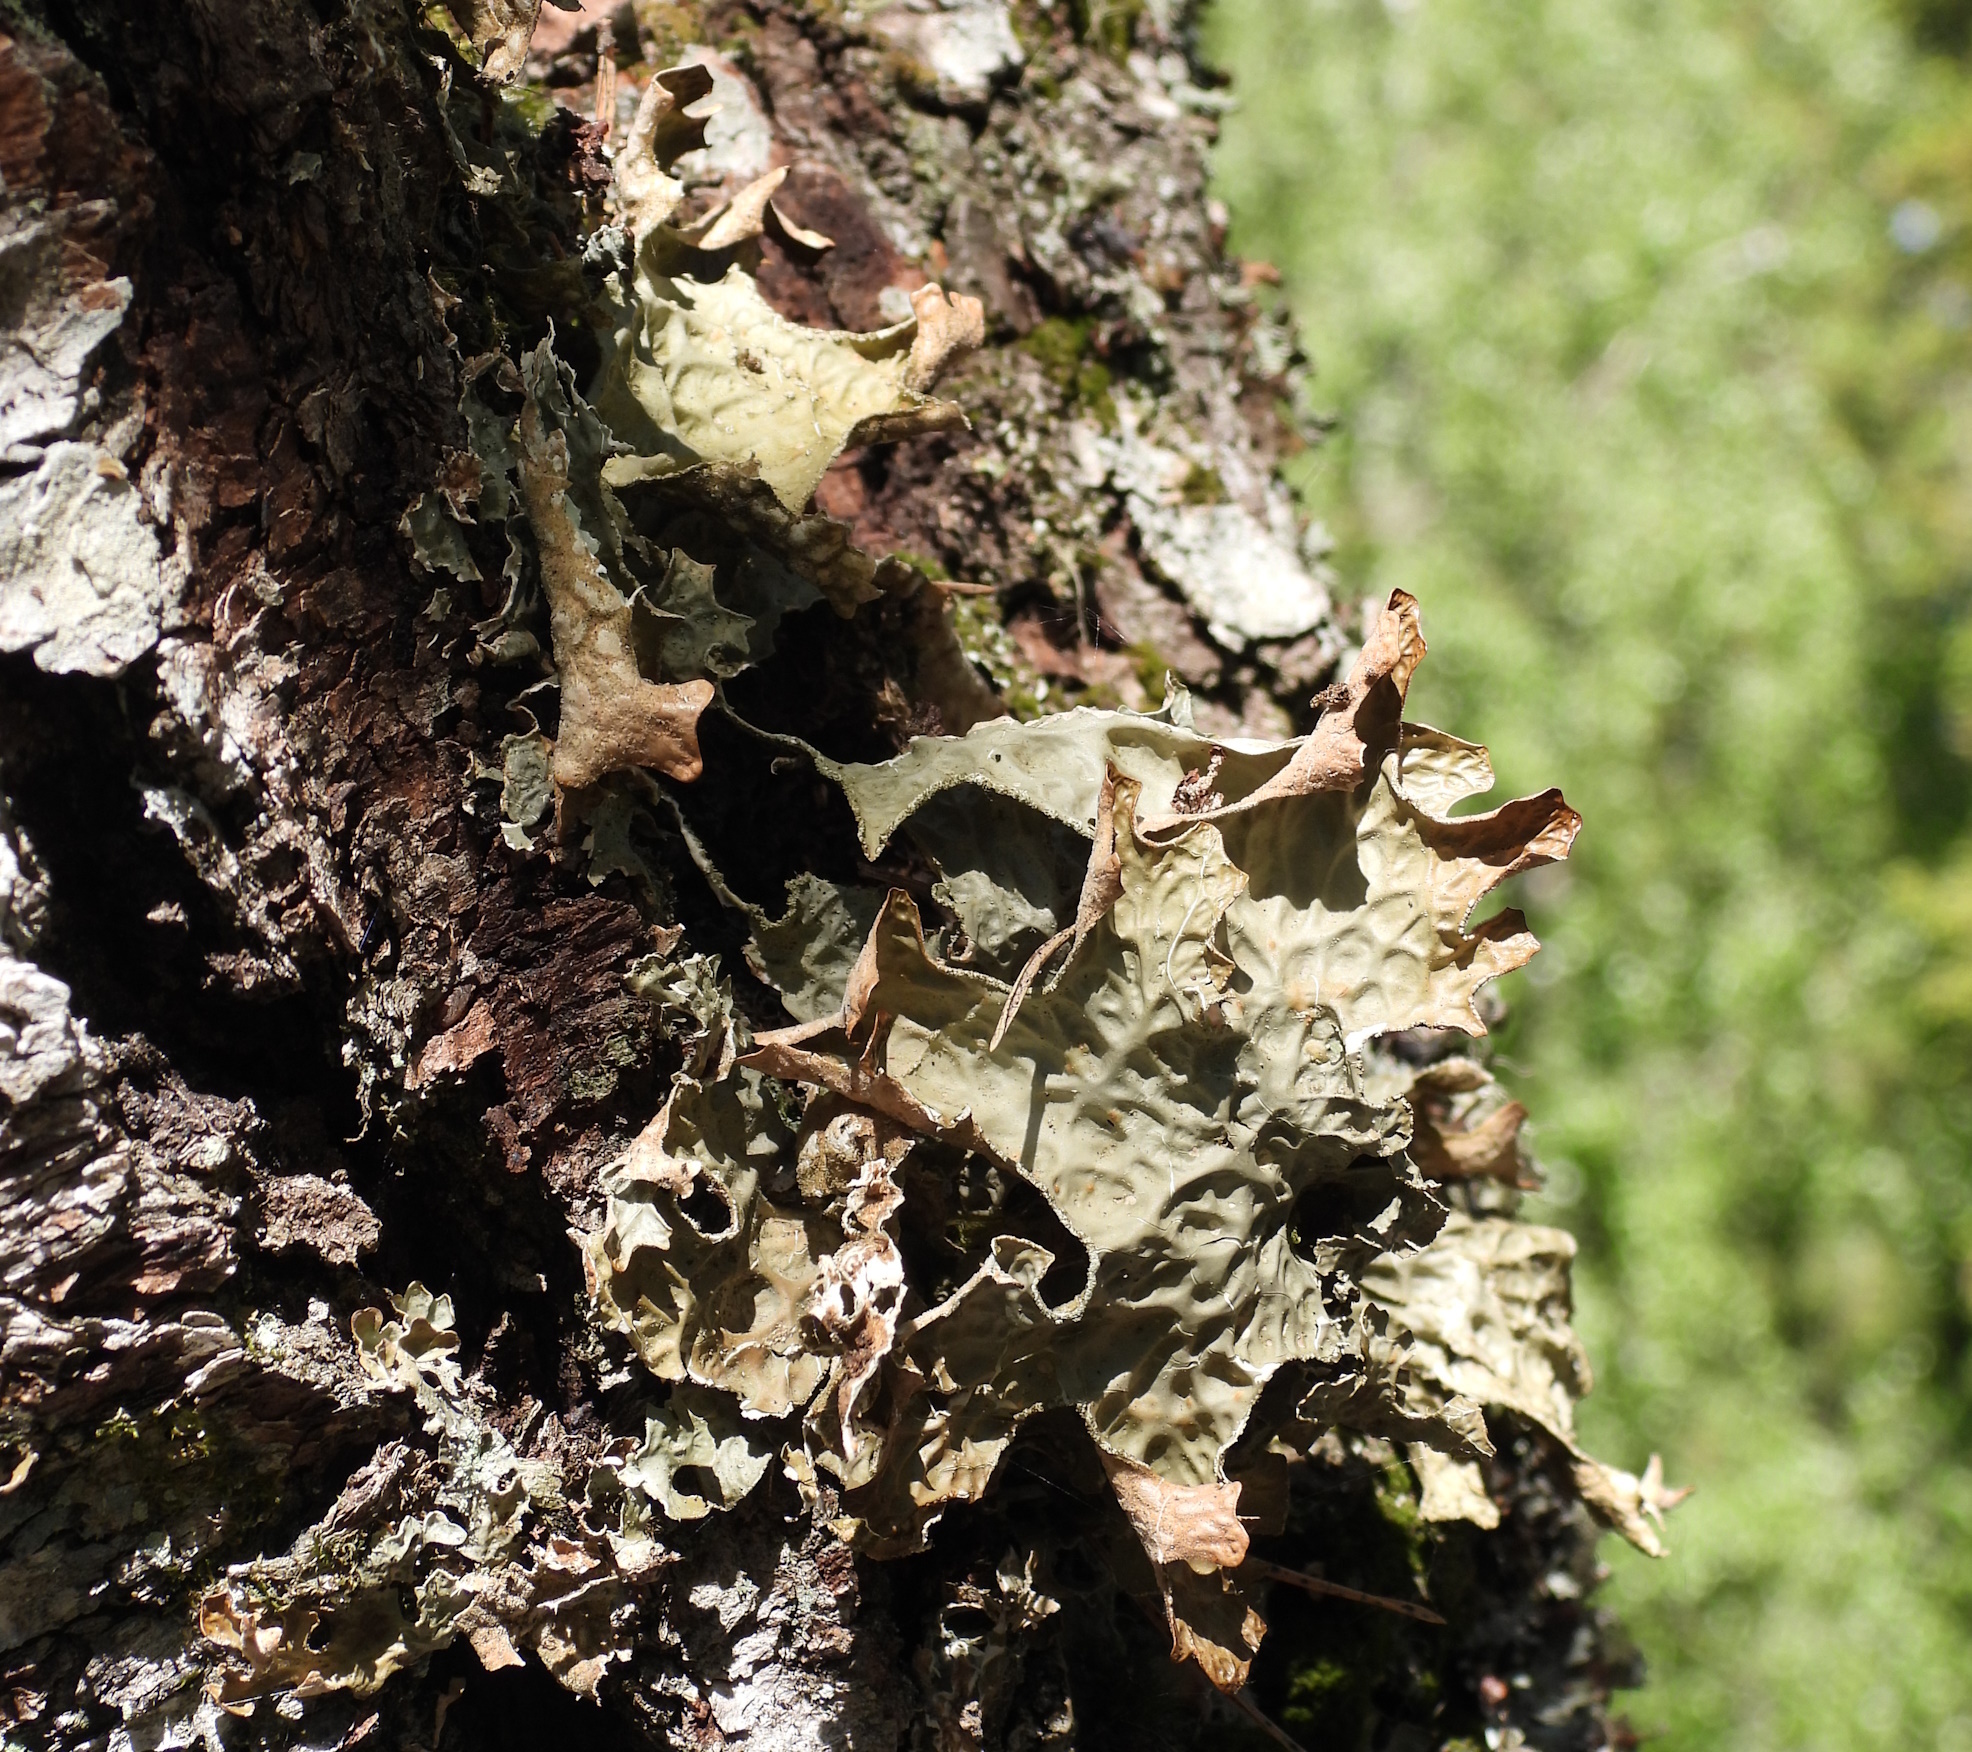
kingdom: Fungi
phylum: Ascomycota
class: Lecanoromycetes
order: Peltigerales
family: Lobariaceae
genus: Lobaria
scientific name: Lobaria pulmonaria
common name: Lungwort
